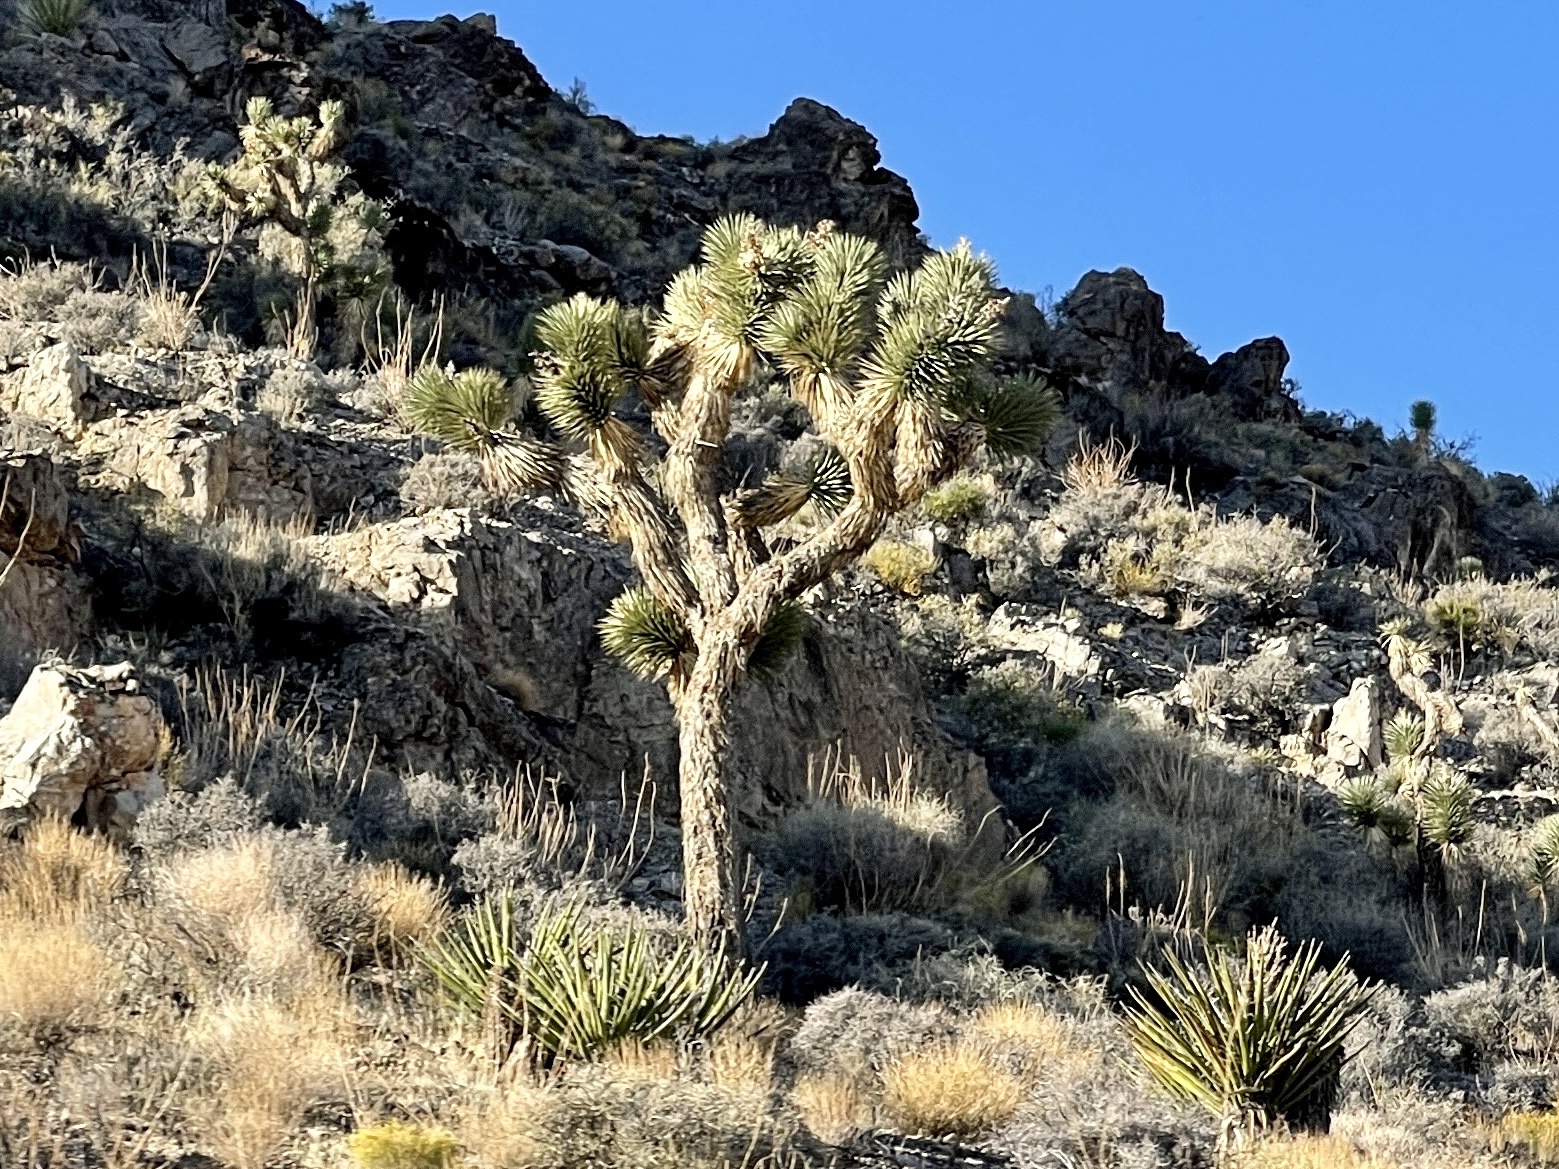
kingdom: Plantae
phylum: Tracheophyta
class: Liliopsida
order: Asparagales
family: Asparagaceae
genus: Yucca
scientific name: Yucca brevifolia
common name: Joshua tree
